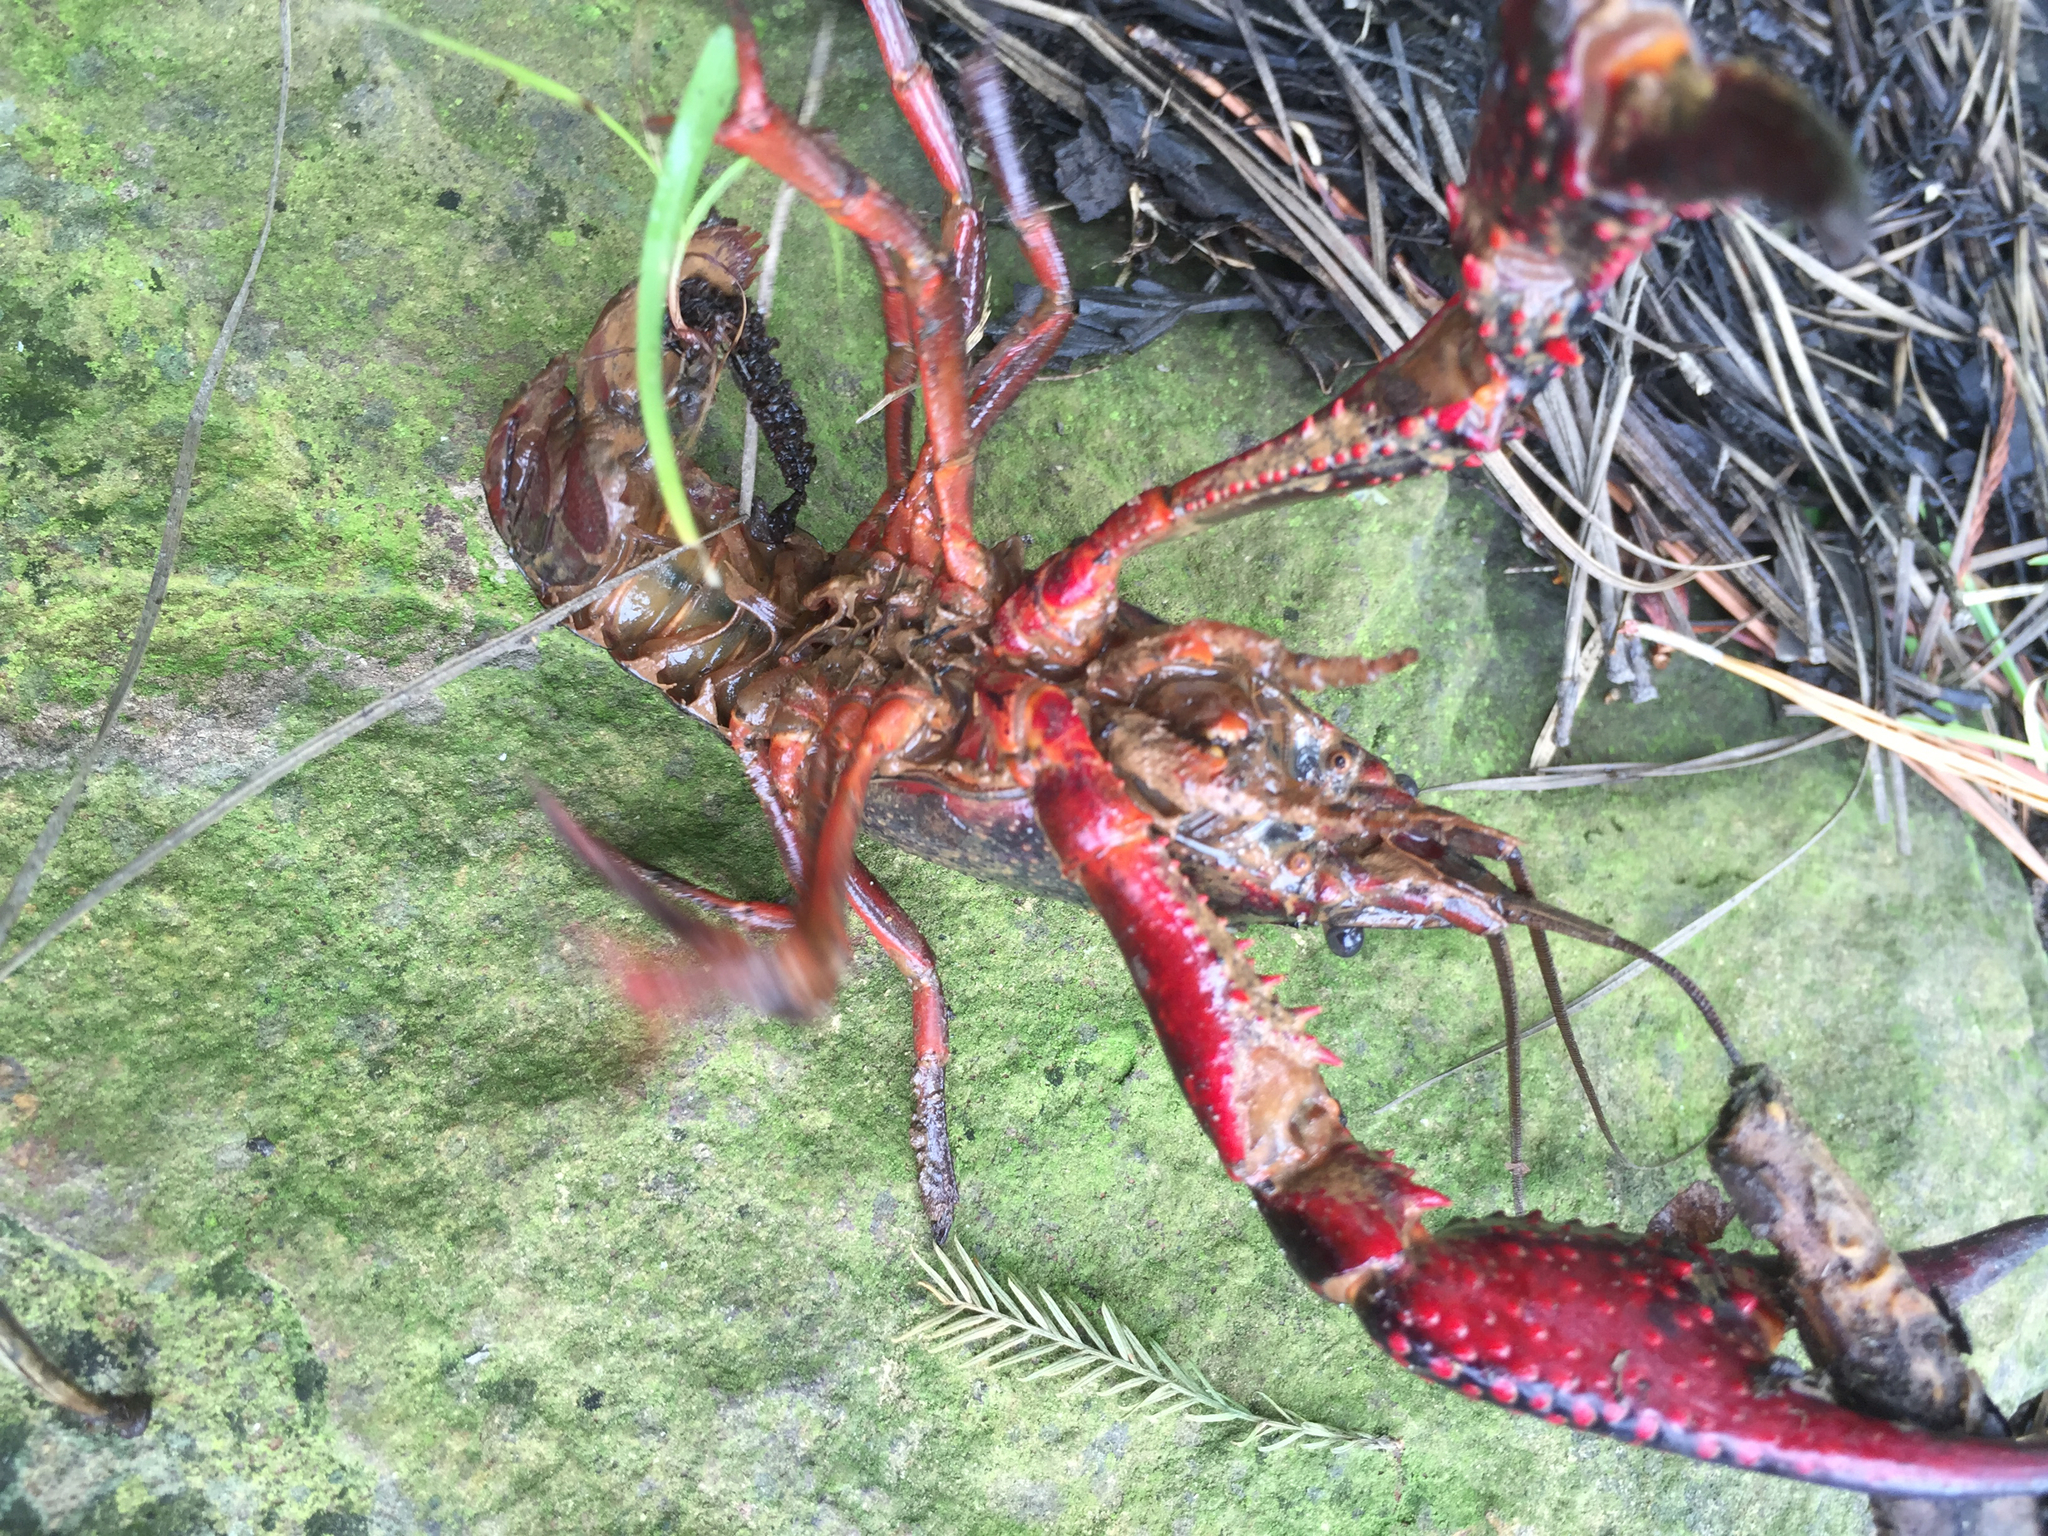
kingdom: Animalia
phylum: Arthropoda
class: Malacostraca
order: Decapoda
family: Cambaridae
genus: Procambarus
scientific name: Procambarus clarkii
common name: Red swamp crayfish
